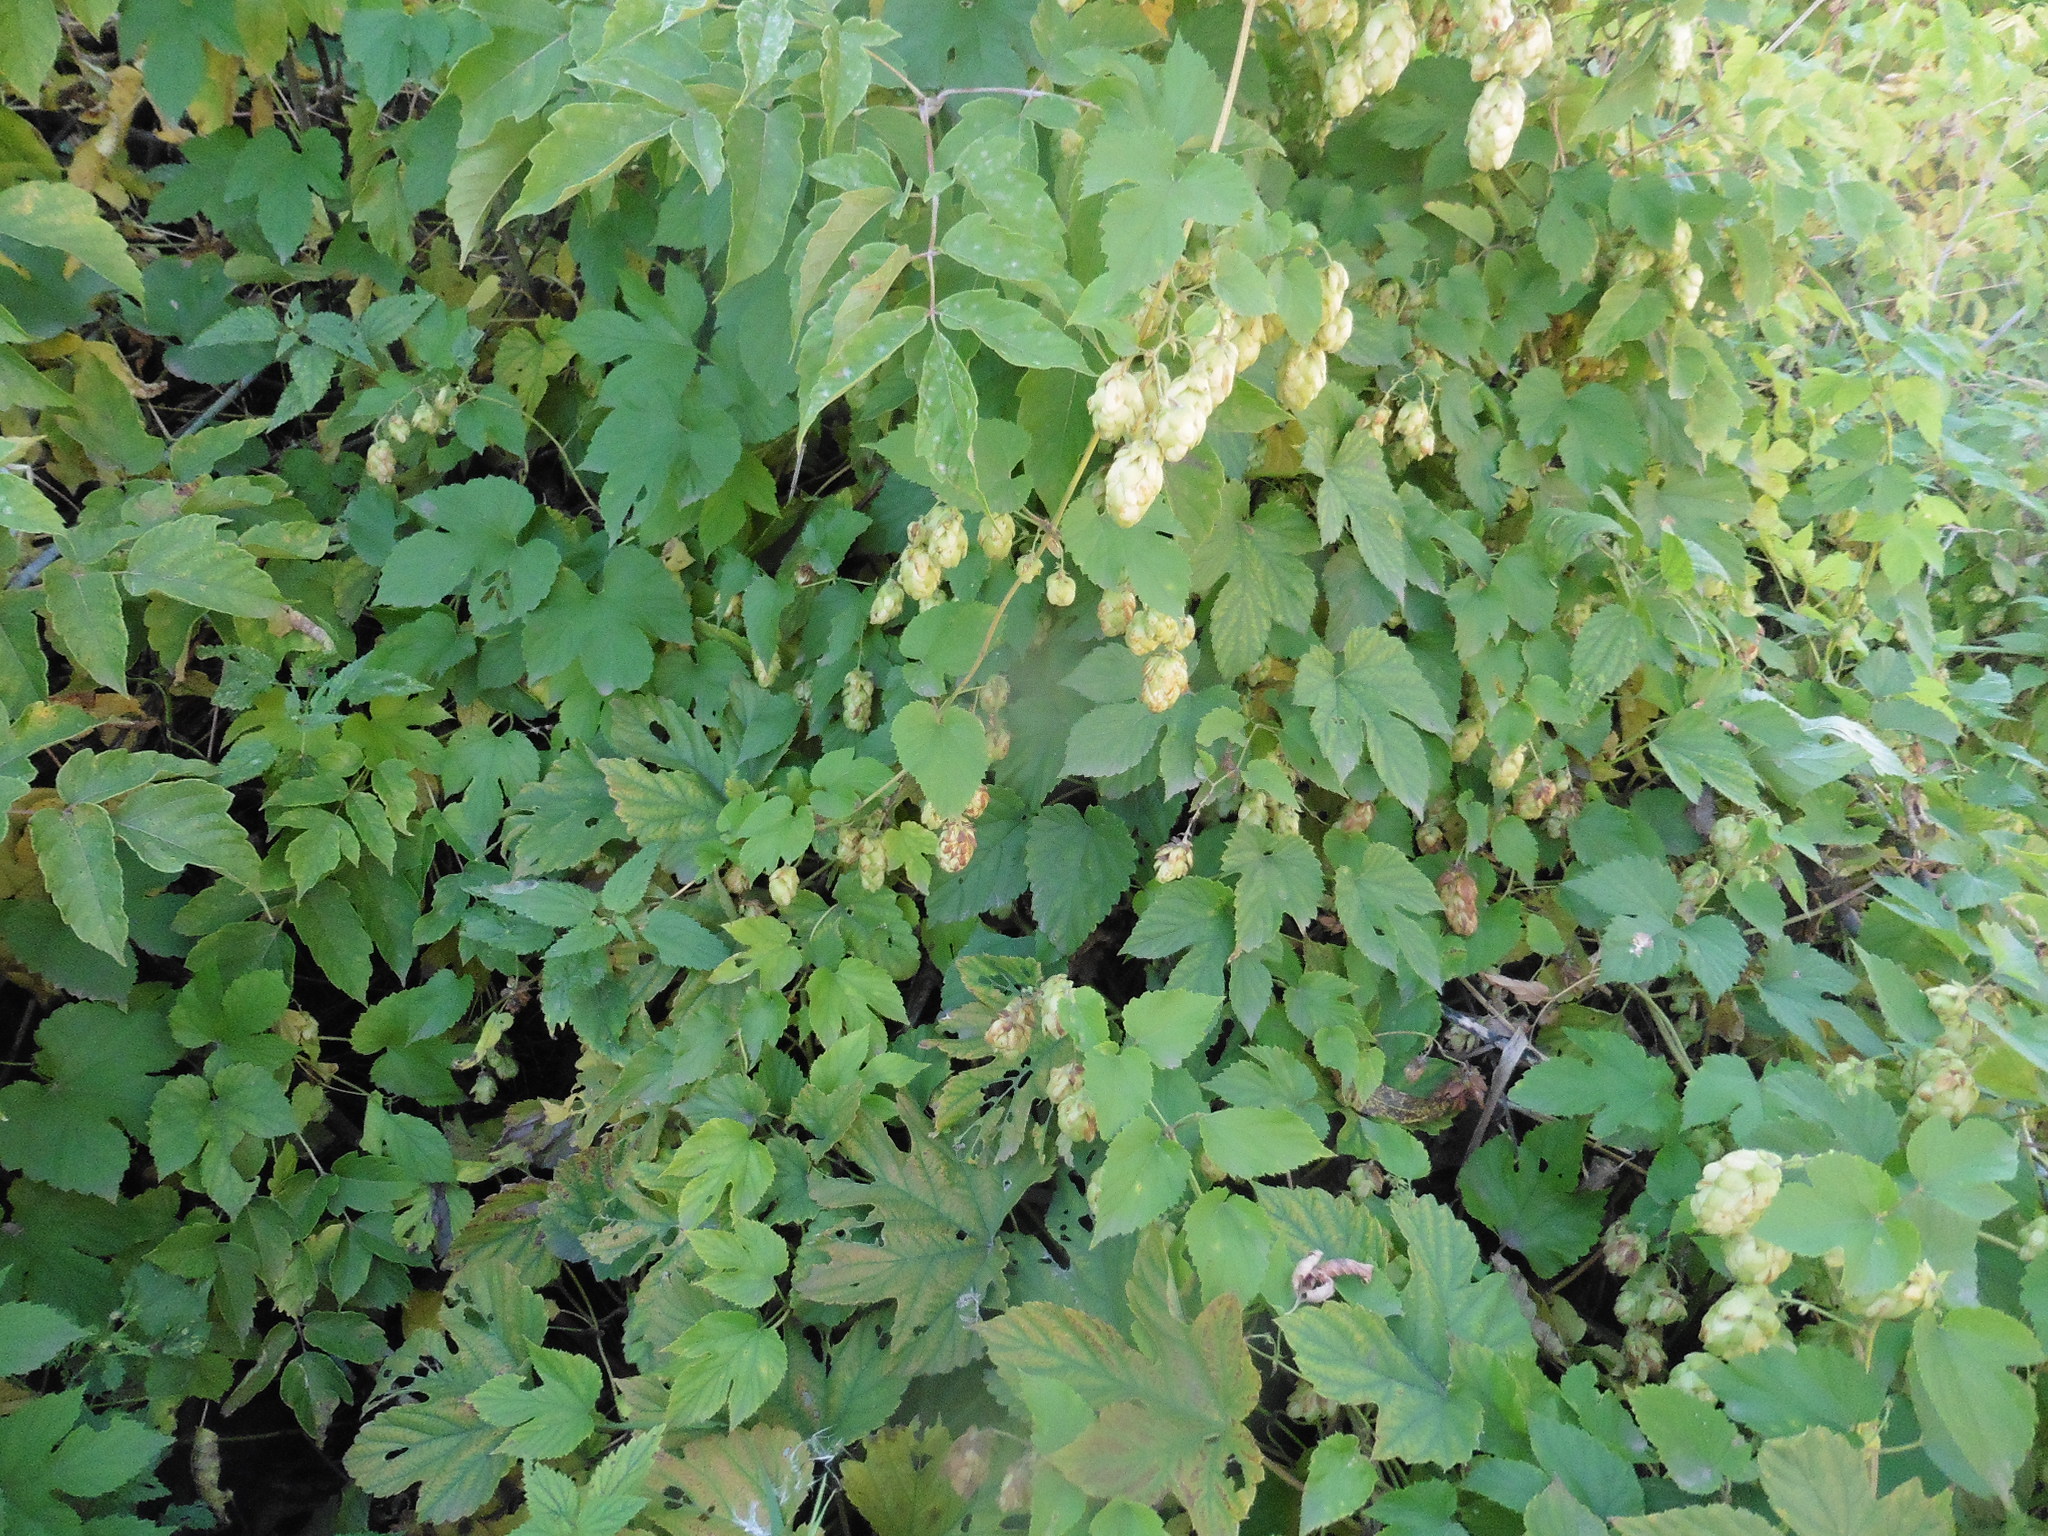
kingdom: Plantae
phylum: Tracheophyta
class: Magnoliopsida
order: Rosales
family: Cannabaceae
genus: Humulus
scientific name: Humulus lupulus
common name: Hop
